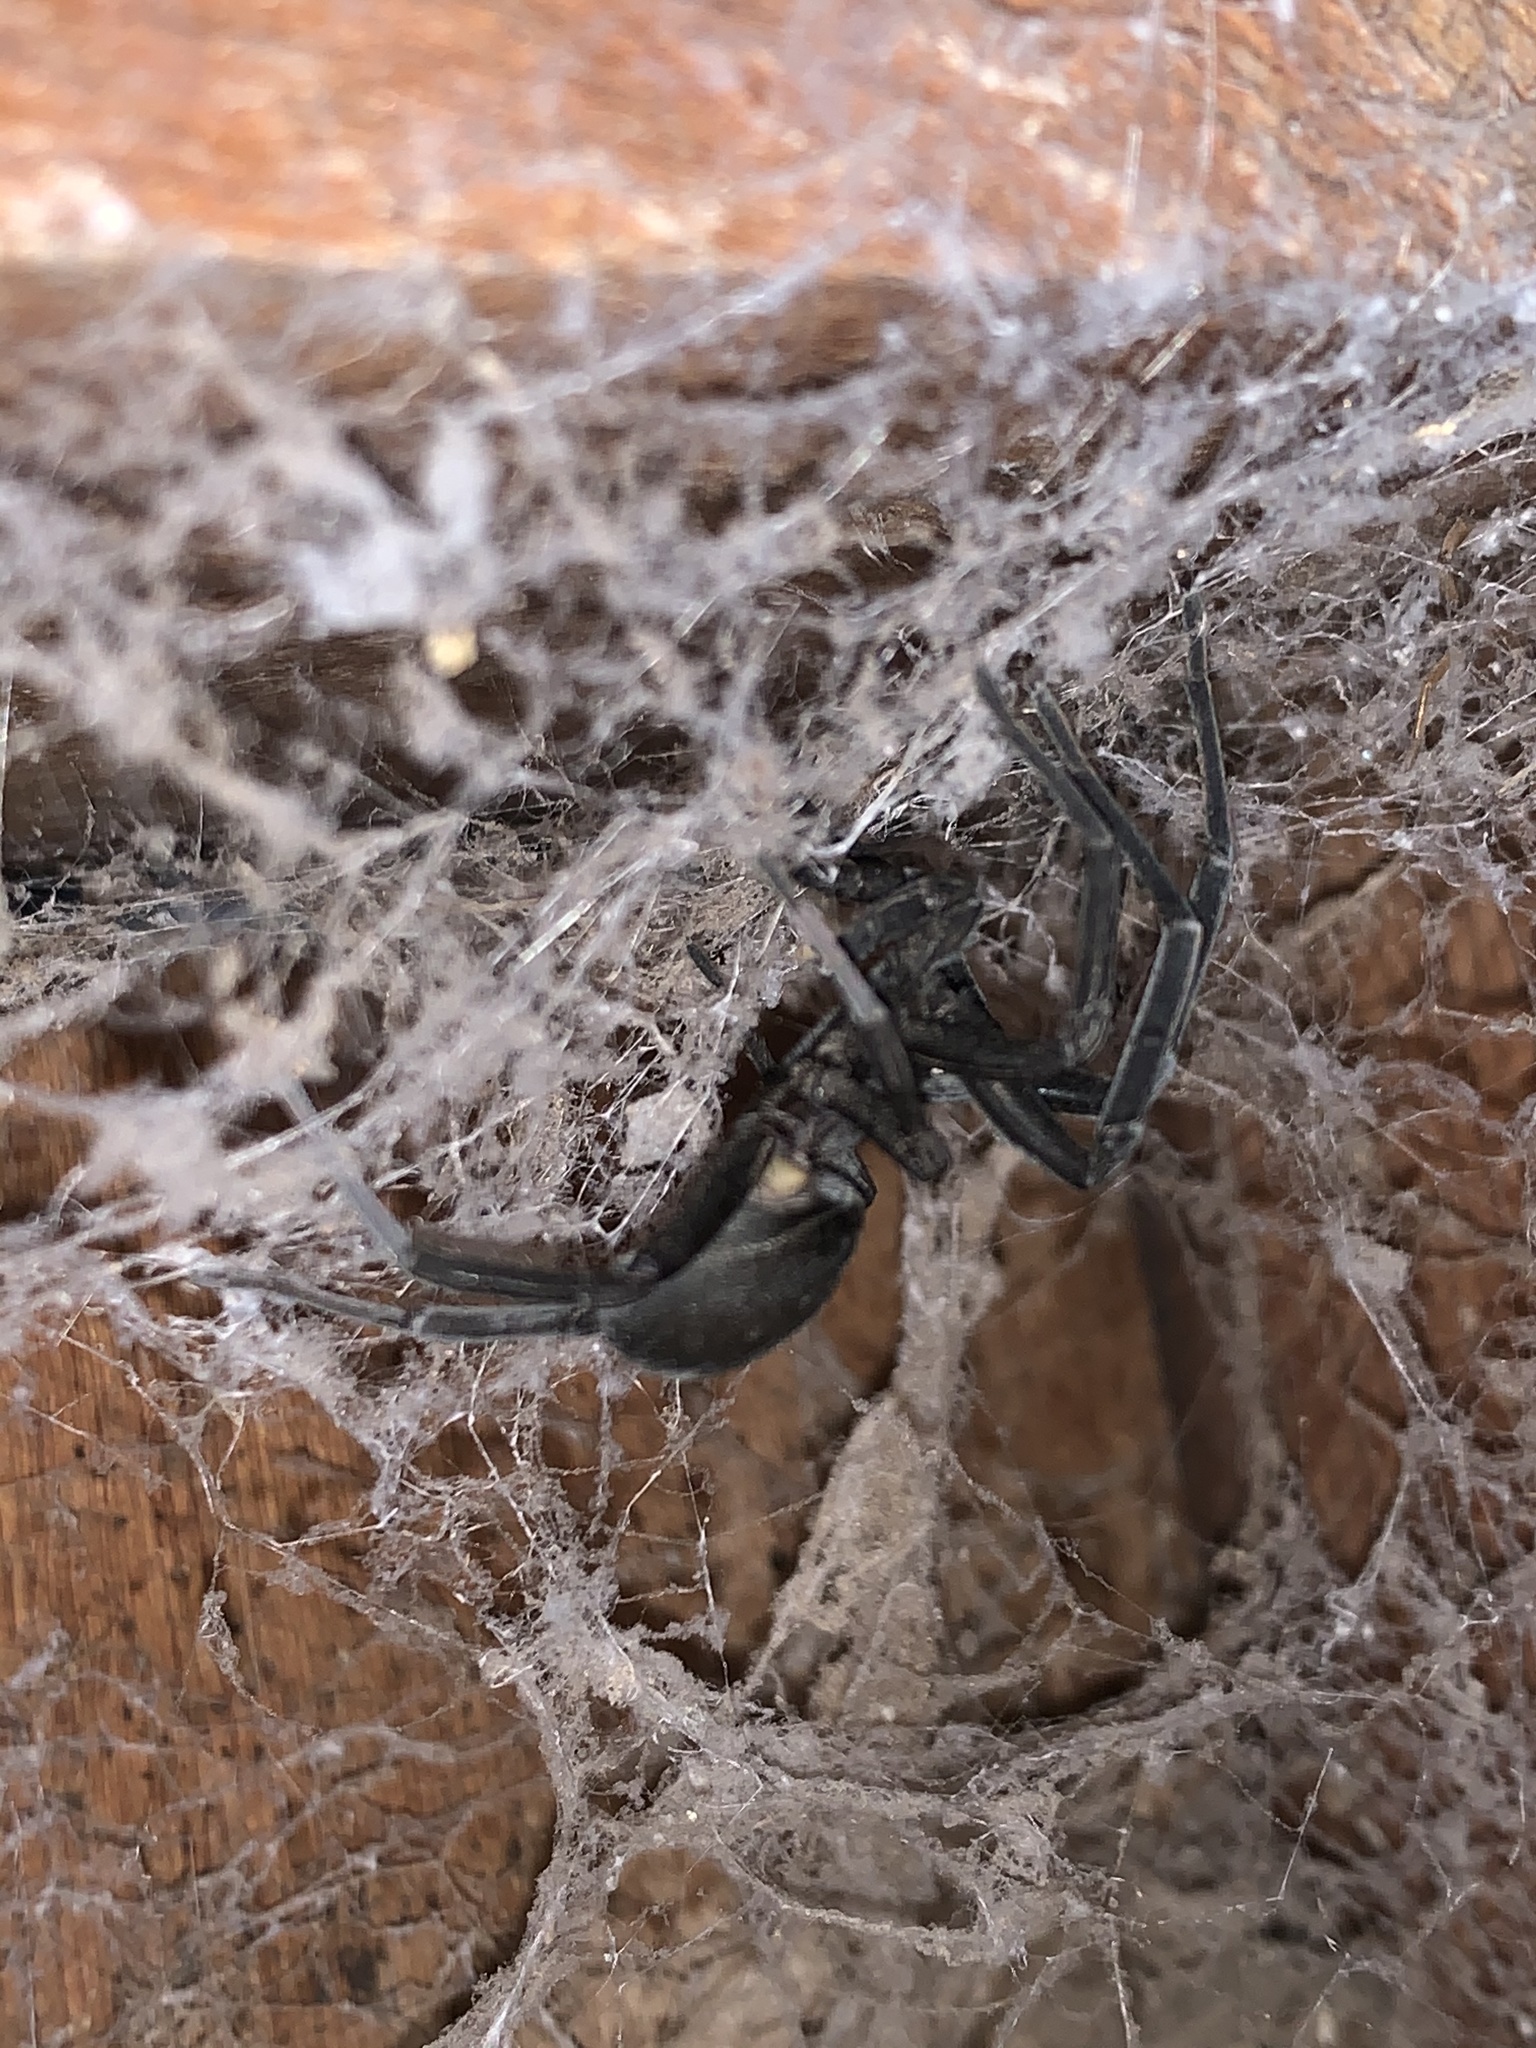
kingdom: Animalia
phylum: Arthropoda
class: Arachnida
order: Araneae
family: Filistatidae
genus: Kukulcania
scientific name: Kukulcania arizonica
